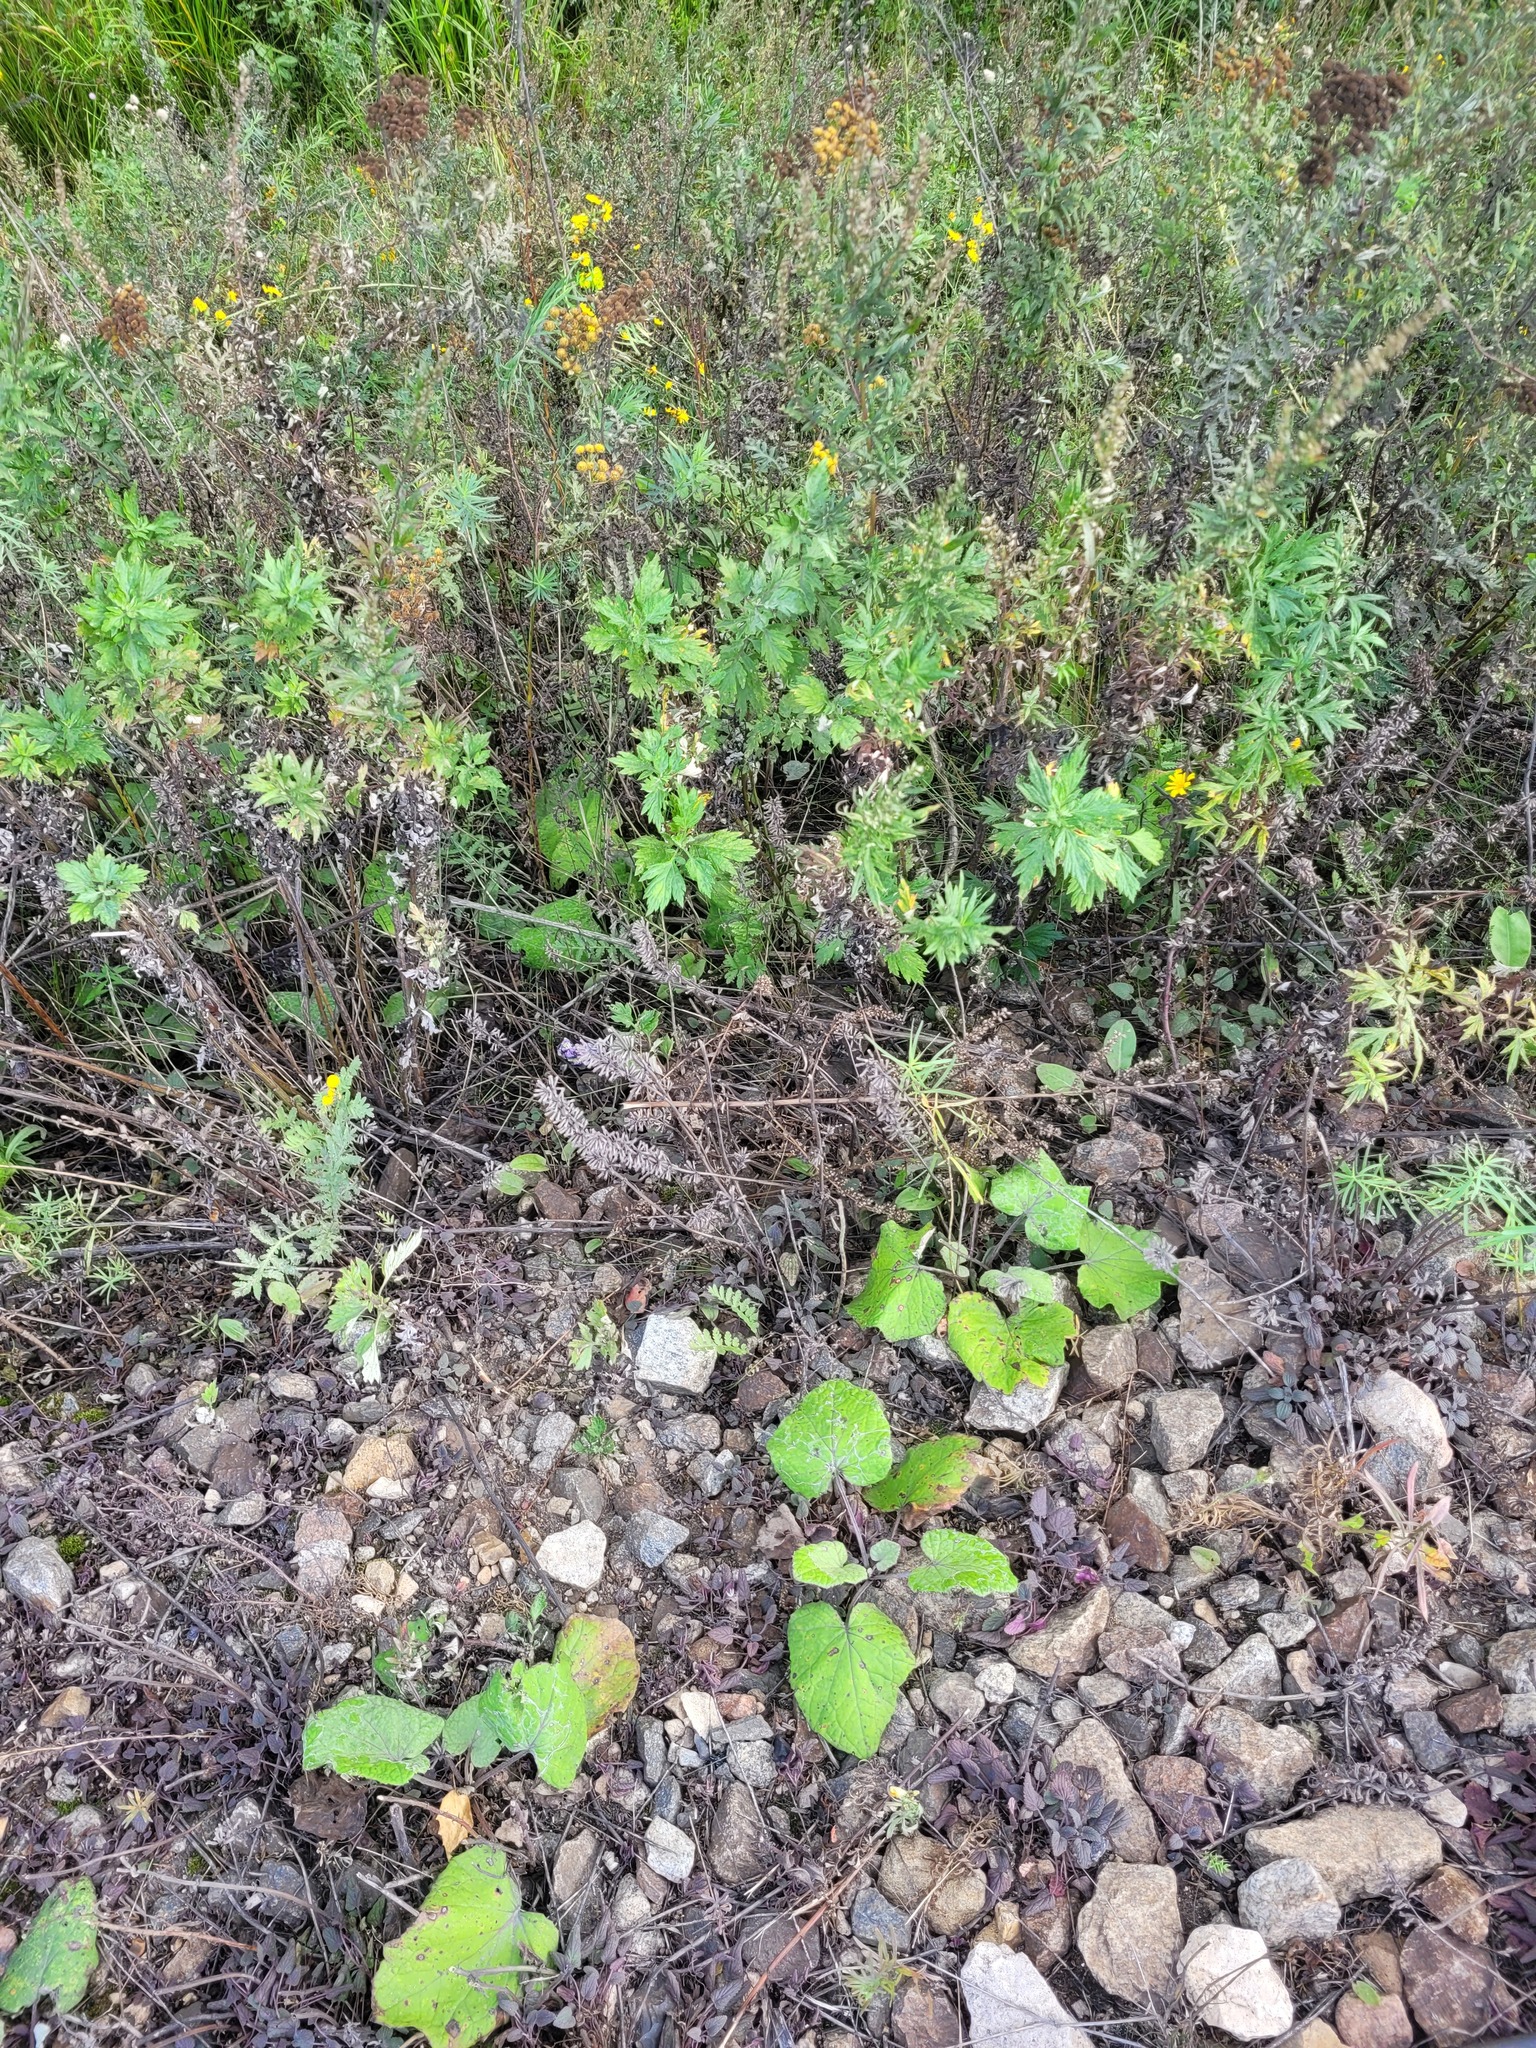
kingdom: Plantae
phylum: Tracheophyta
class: Magnoliopsida
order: Lamiales
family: Lamiaceae
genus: Dracocephalum
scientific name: Dracocephalum thymiflorum
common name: Thymeleaf dragonhead
